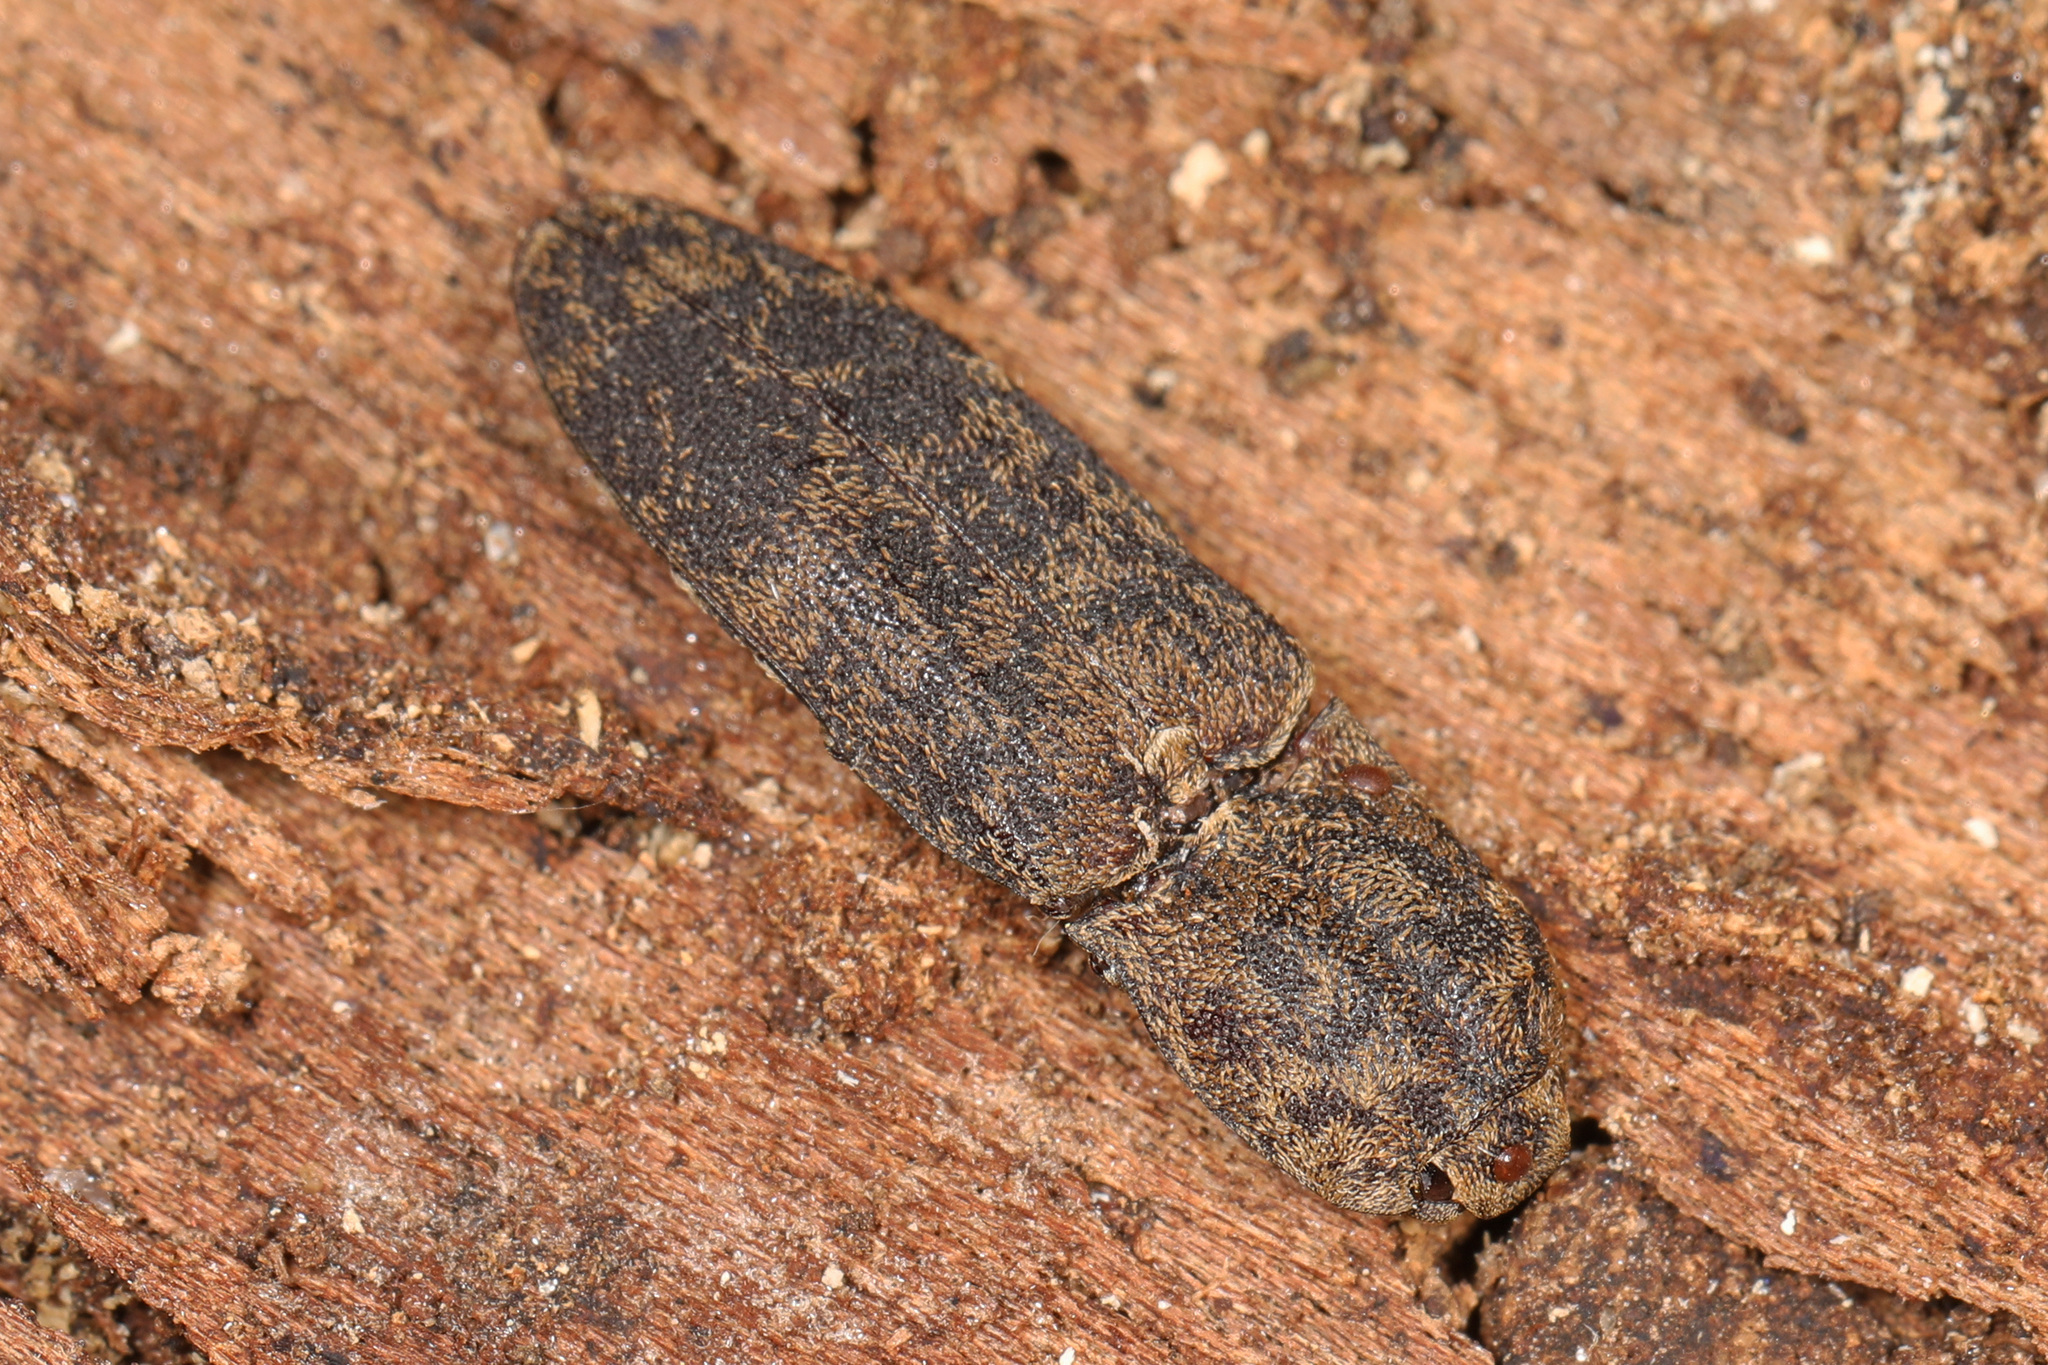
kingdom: Animalia
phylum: Arthropoda
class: Insecta
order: Coleoptera
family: Elateridae
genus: Lacon
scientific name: Lacon marmoratus
